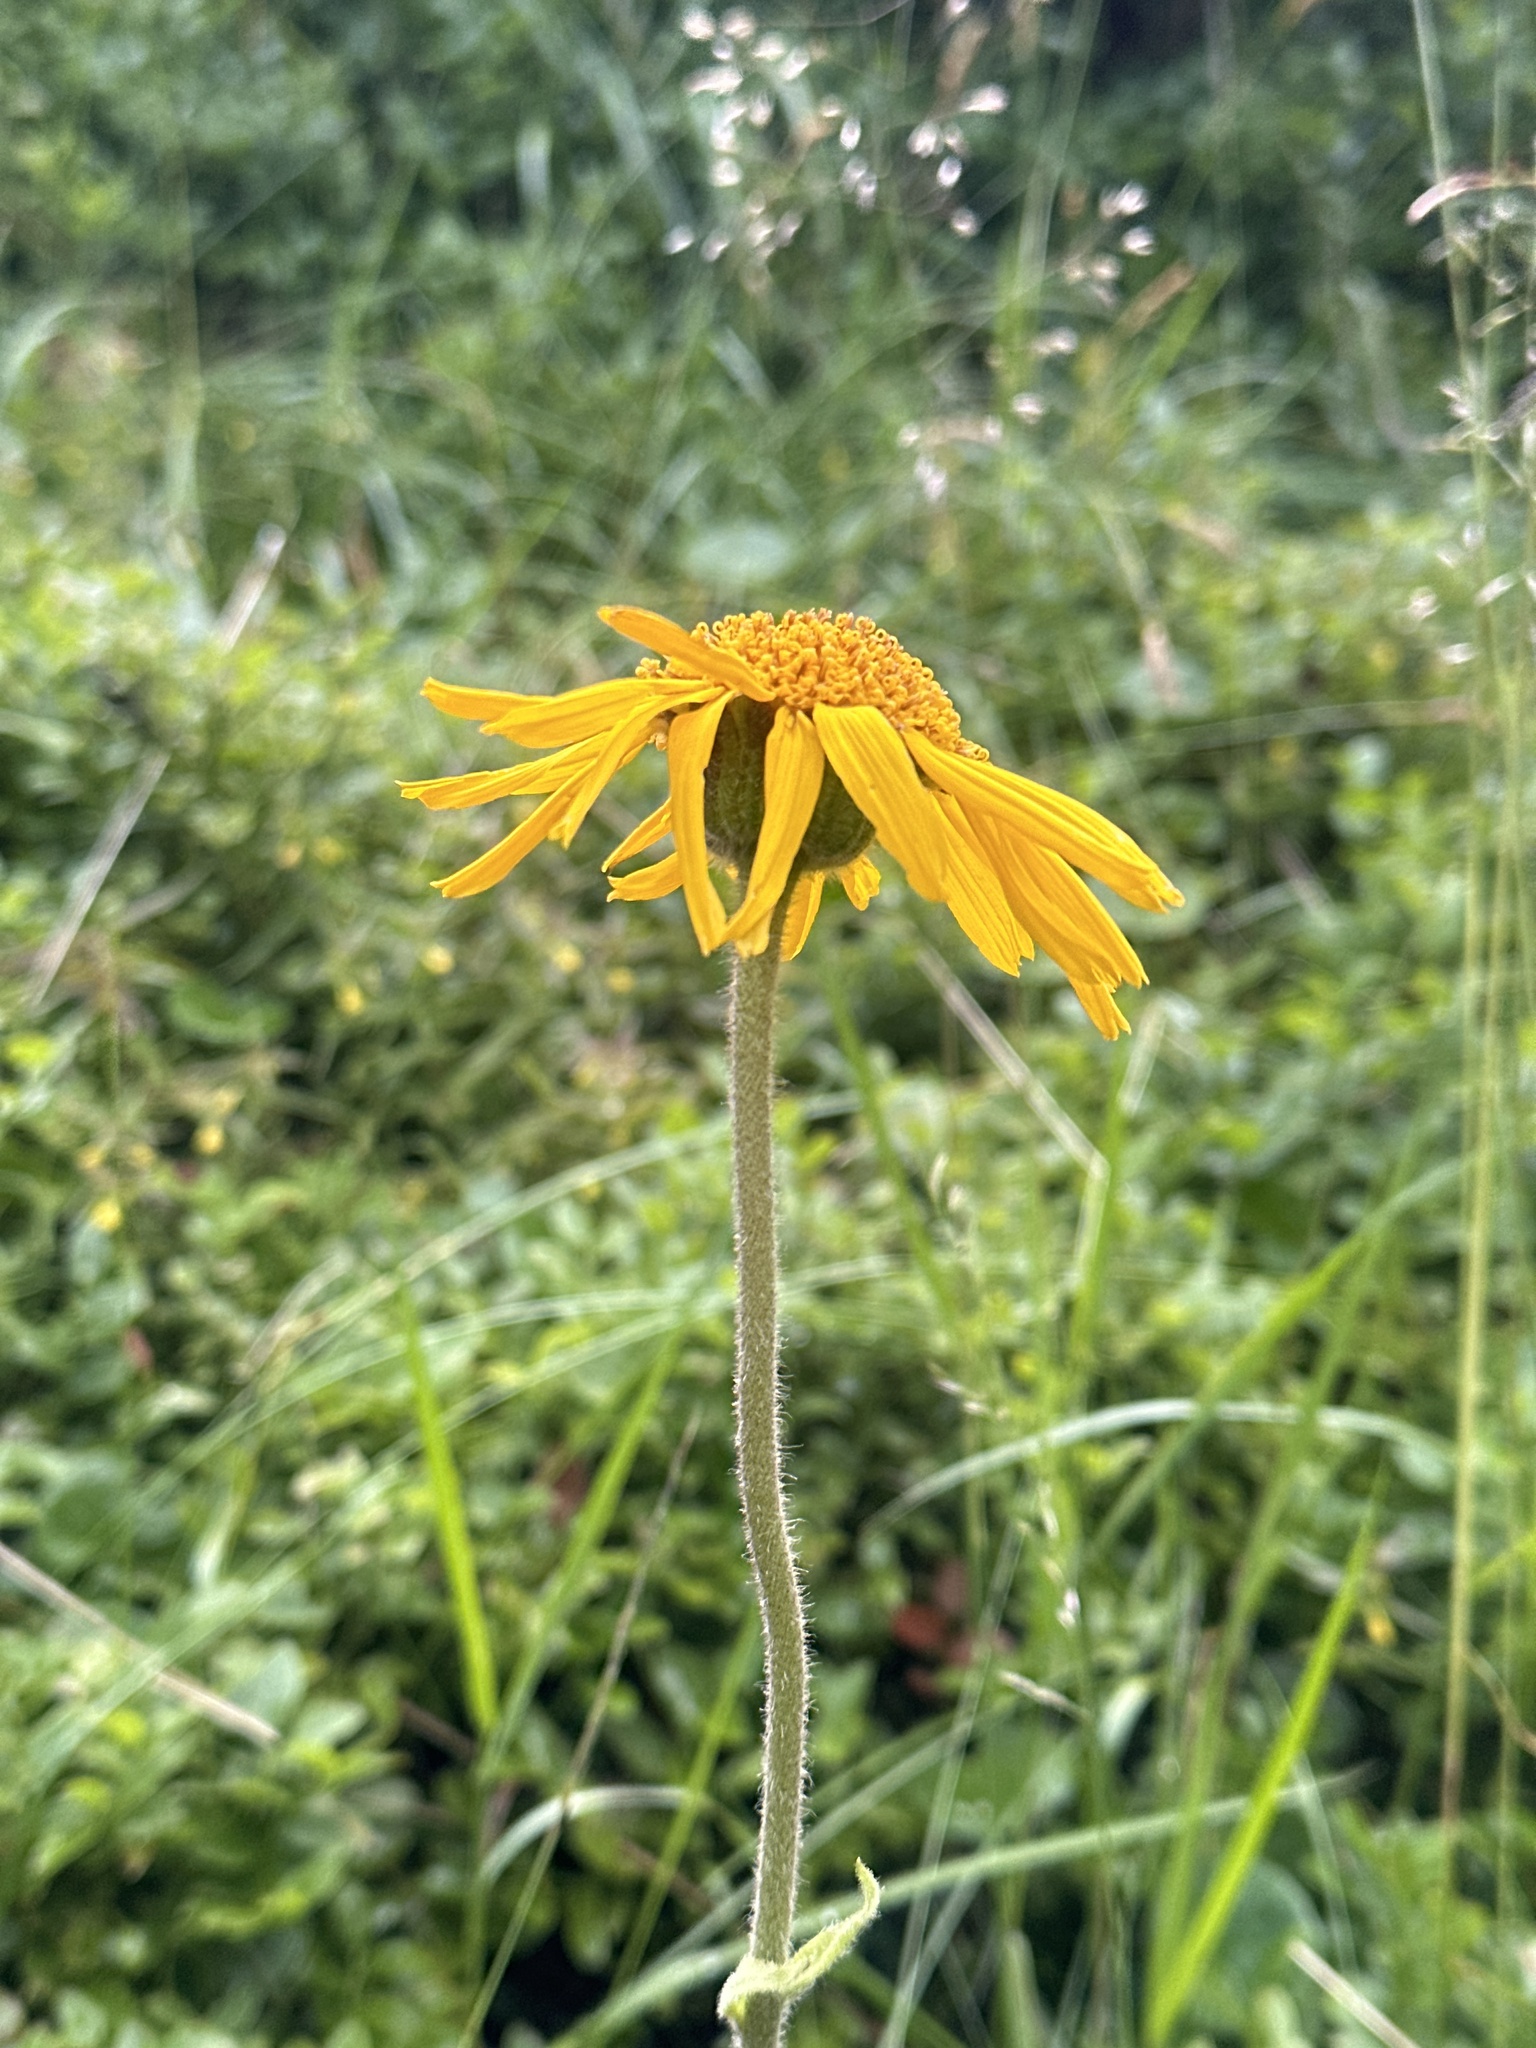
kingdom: Plantae
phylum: Tracheophyta
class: Magnoliopsida
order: Asterales
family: Asteraceae
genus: Arnica
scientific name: Arnica montana
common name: Leopard's bane
